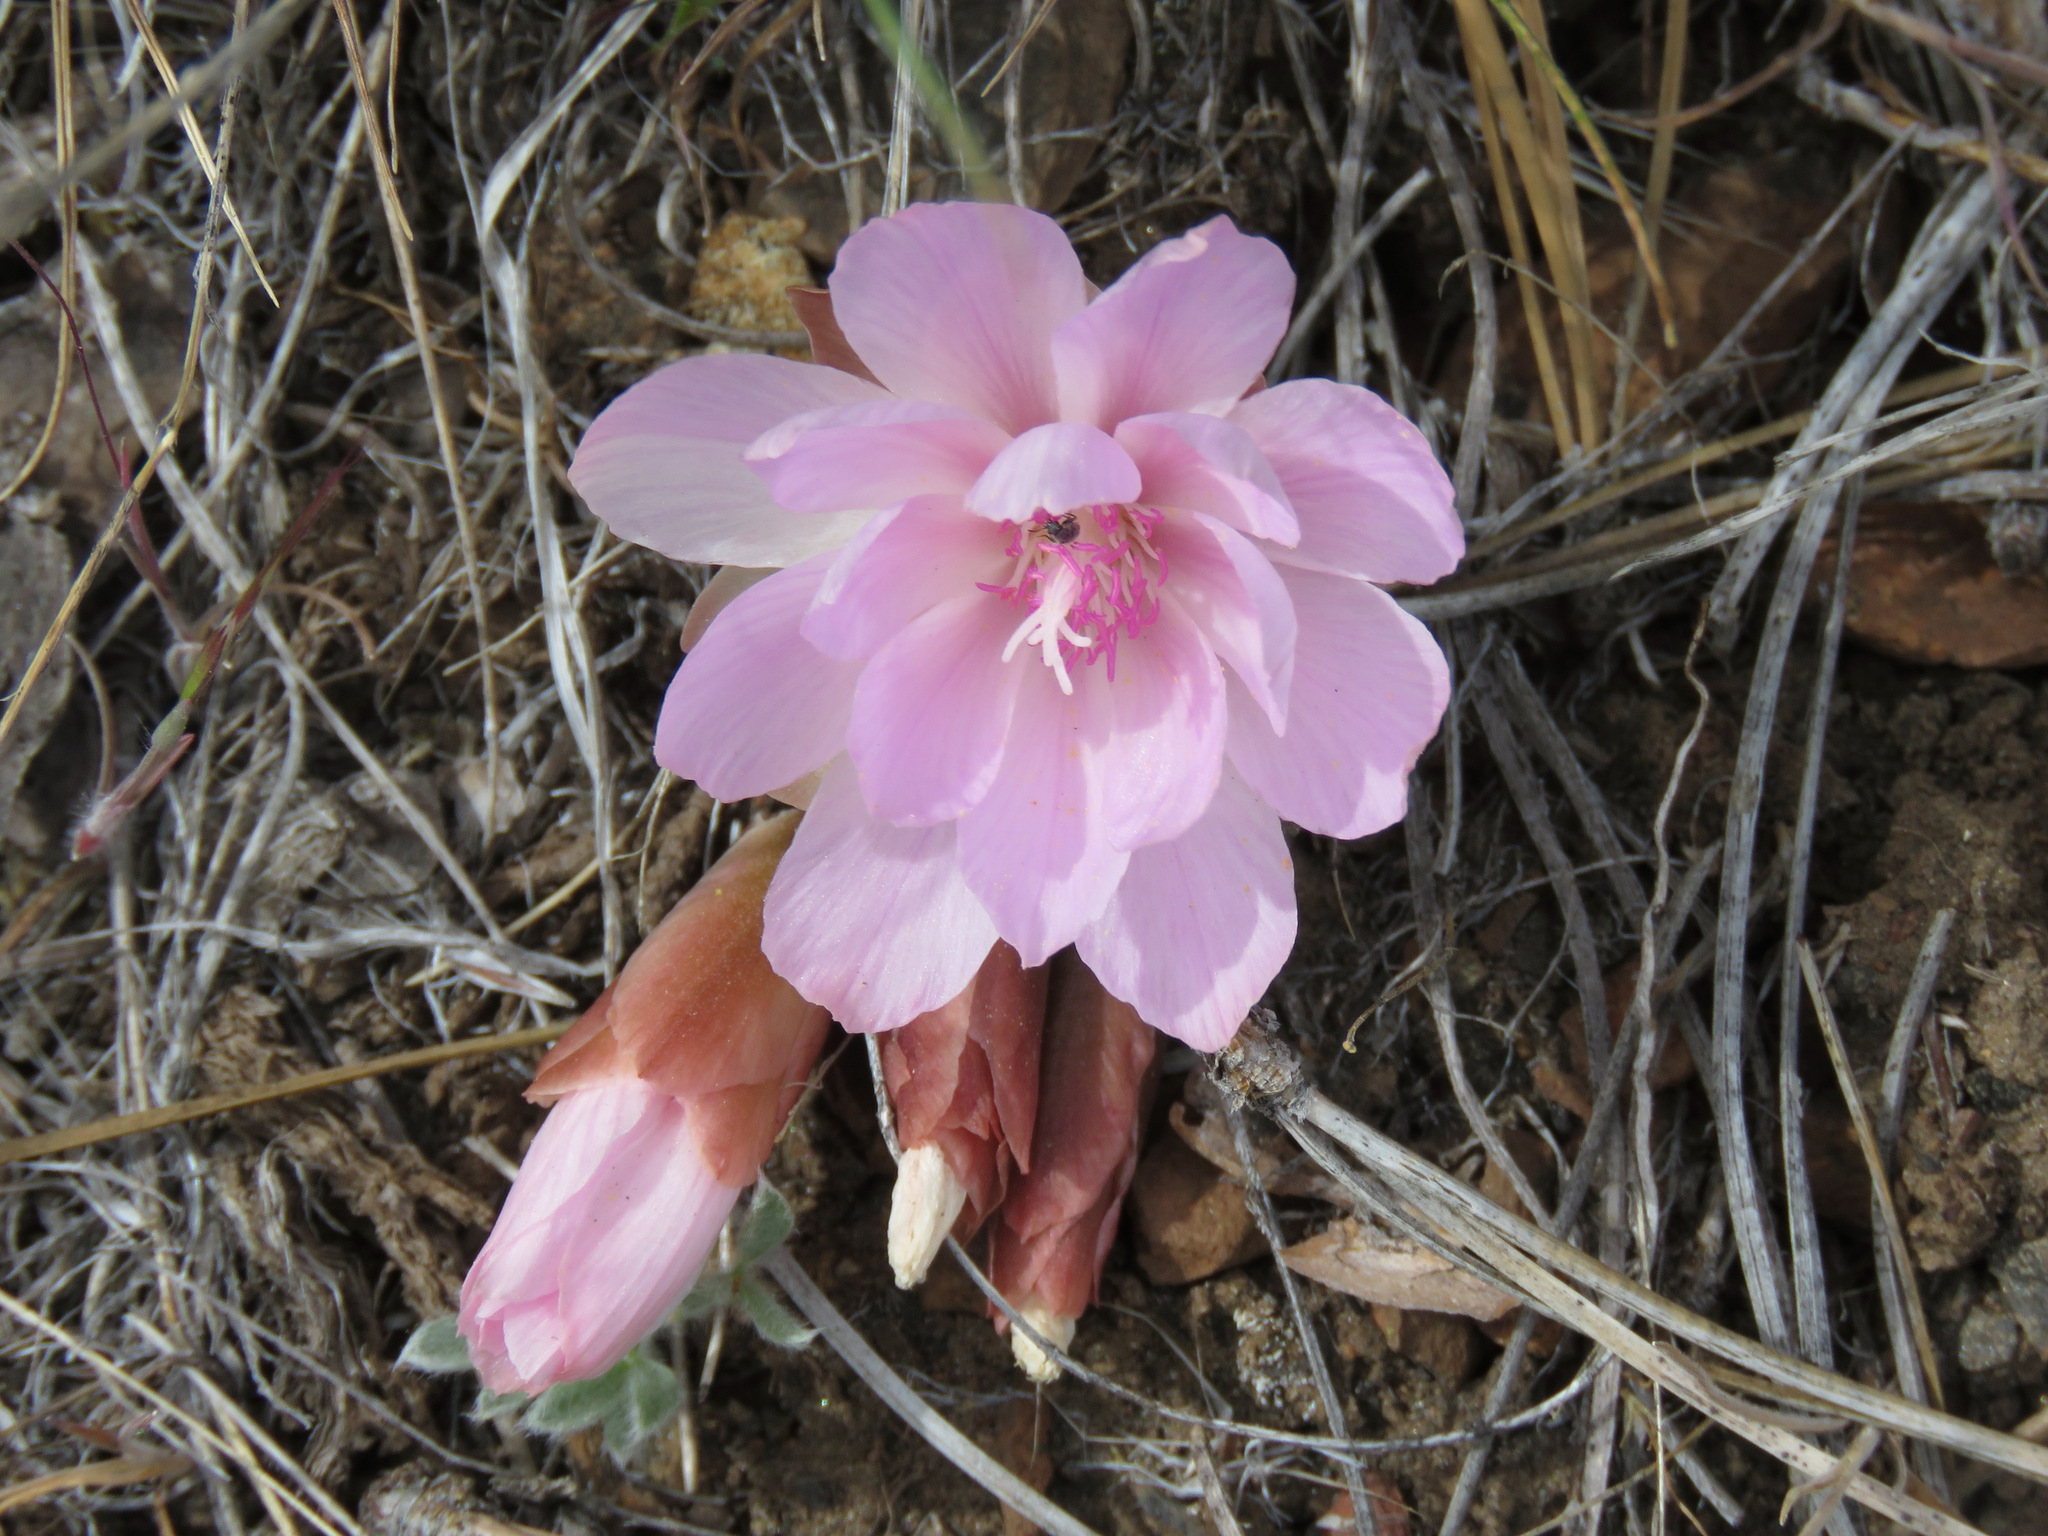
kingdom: Plantae
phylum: Tracheophyta
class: Magnoliopsida
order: Caryophyllales
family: Montiaceae
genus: Lewisia
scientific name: Lewisia rediviva
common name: Bitter-root
